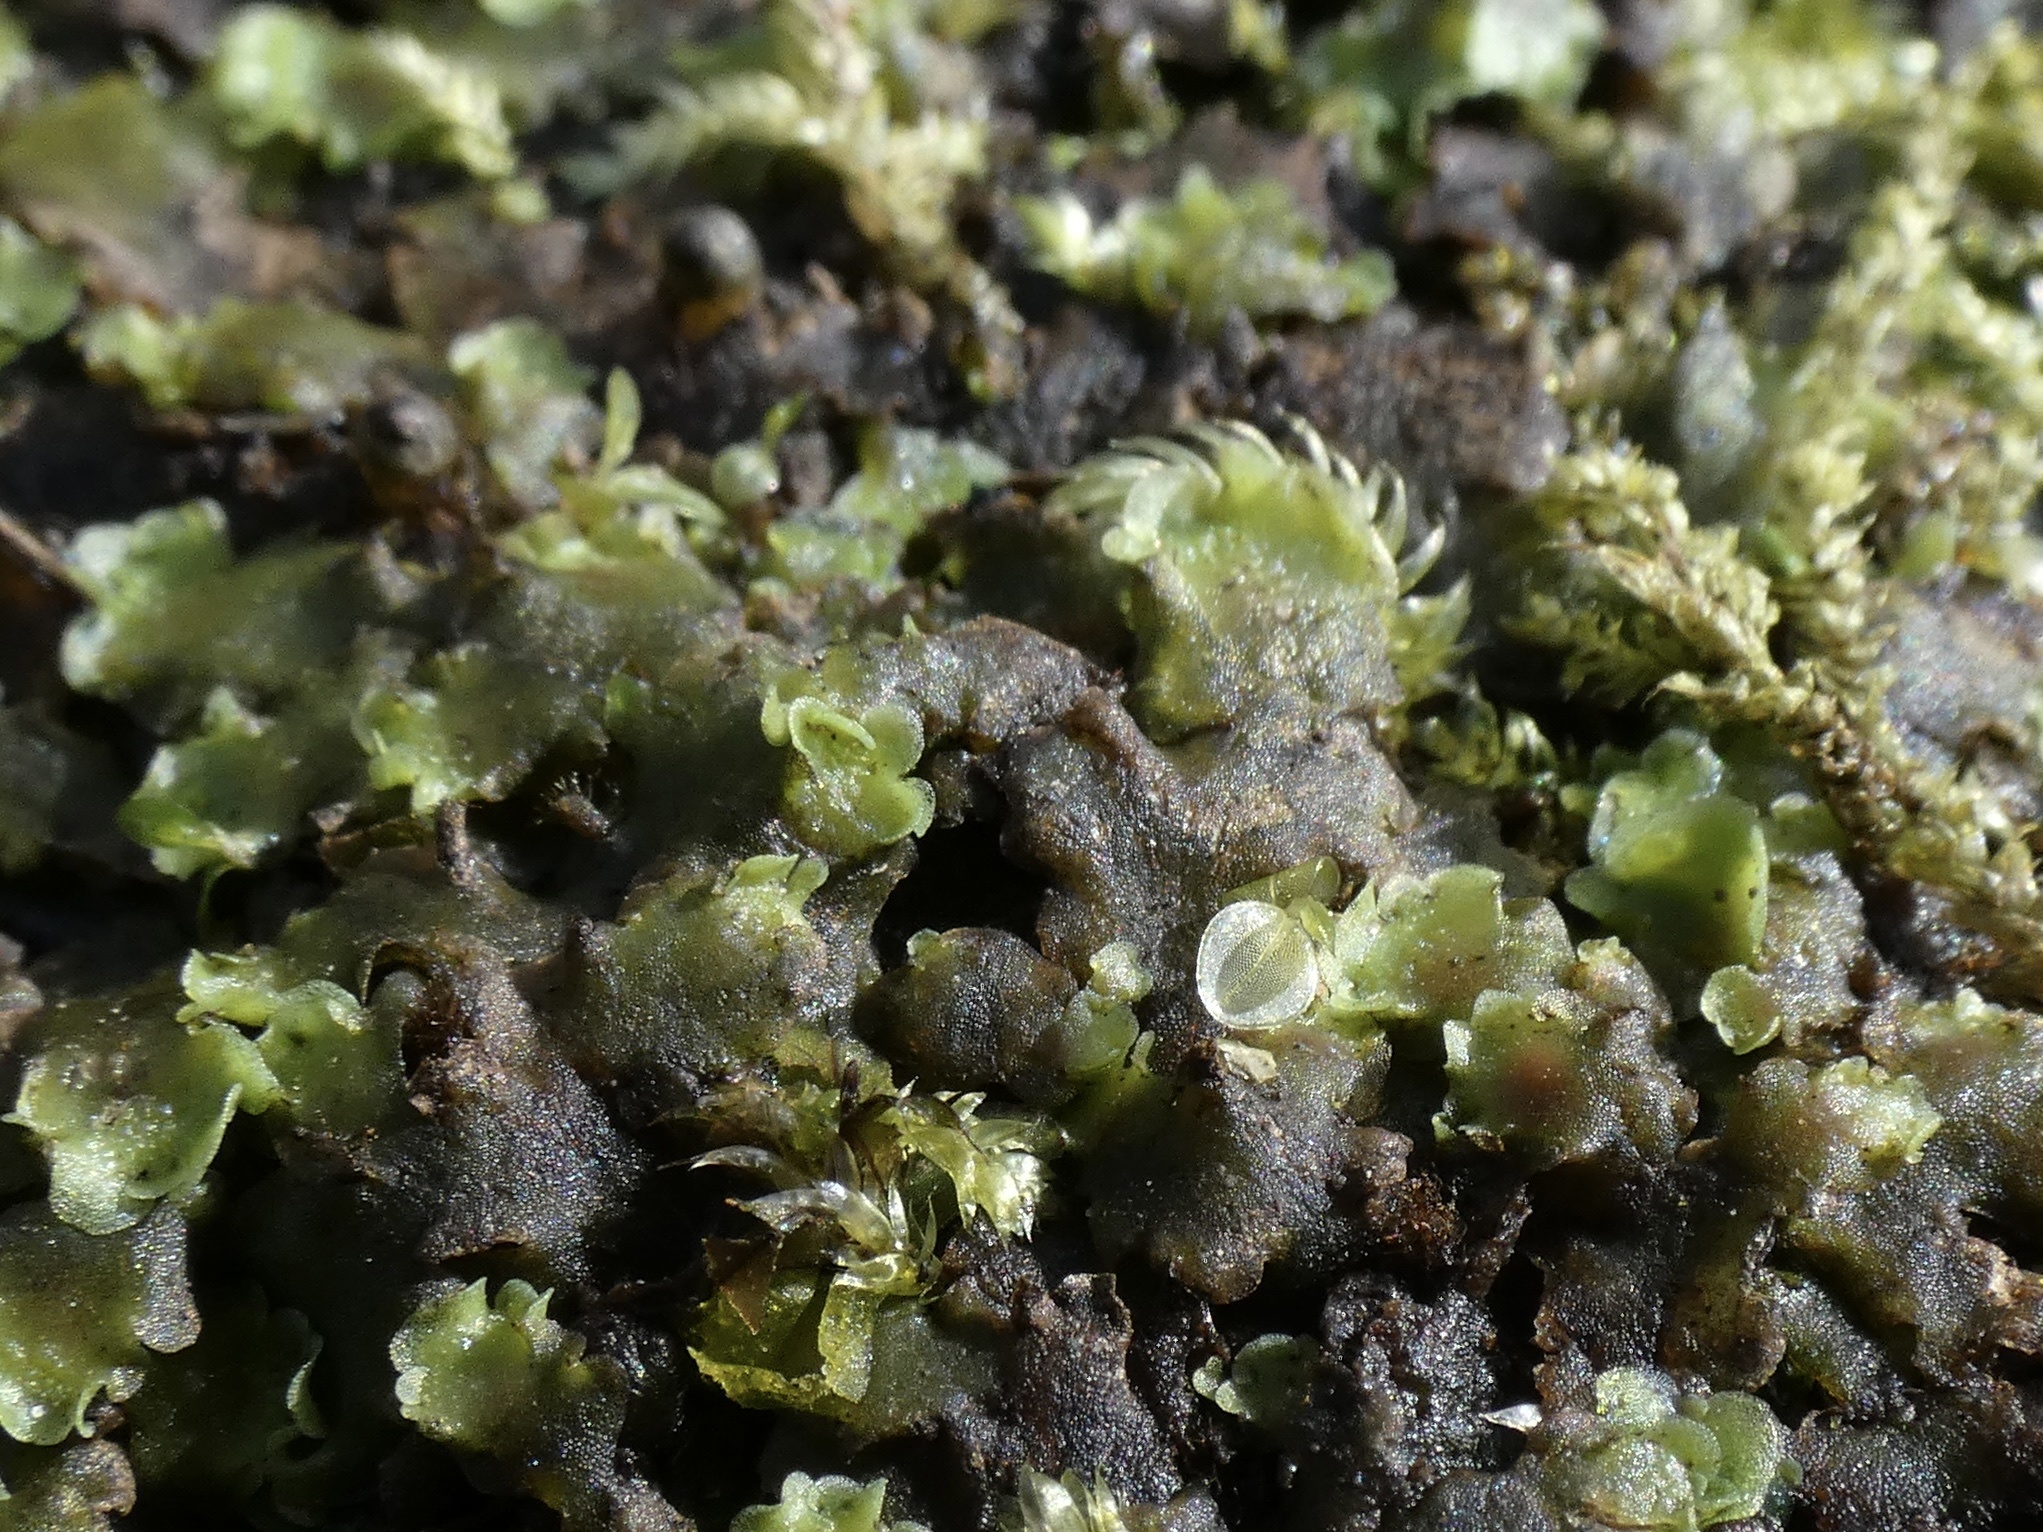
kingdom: Plantae
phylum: Marchantiophyta
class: Jungermanniopsida
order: Pelliales
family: Pelliaceae
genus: Pellia
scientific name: Pellia epiphylla
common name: Common pellia
